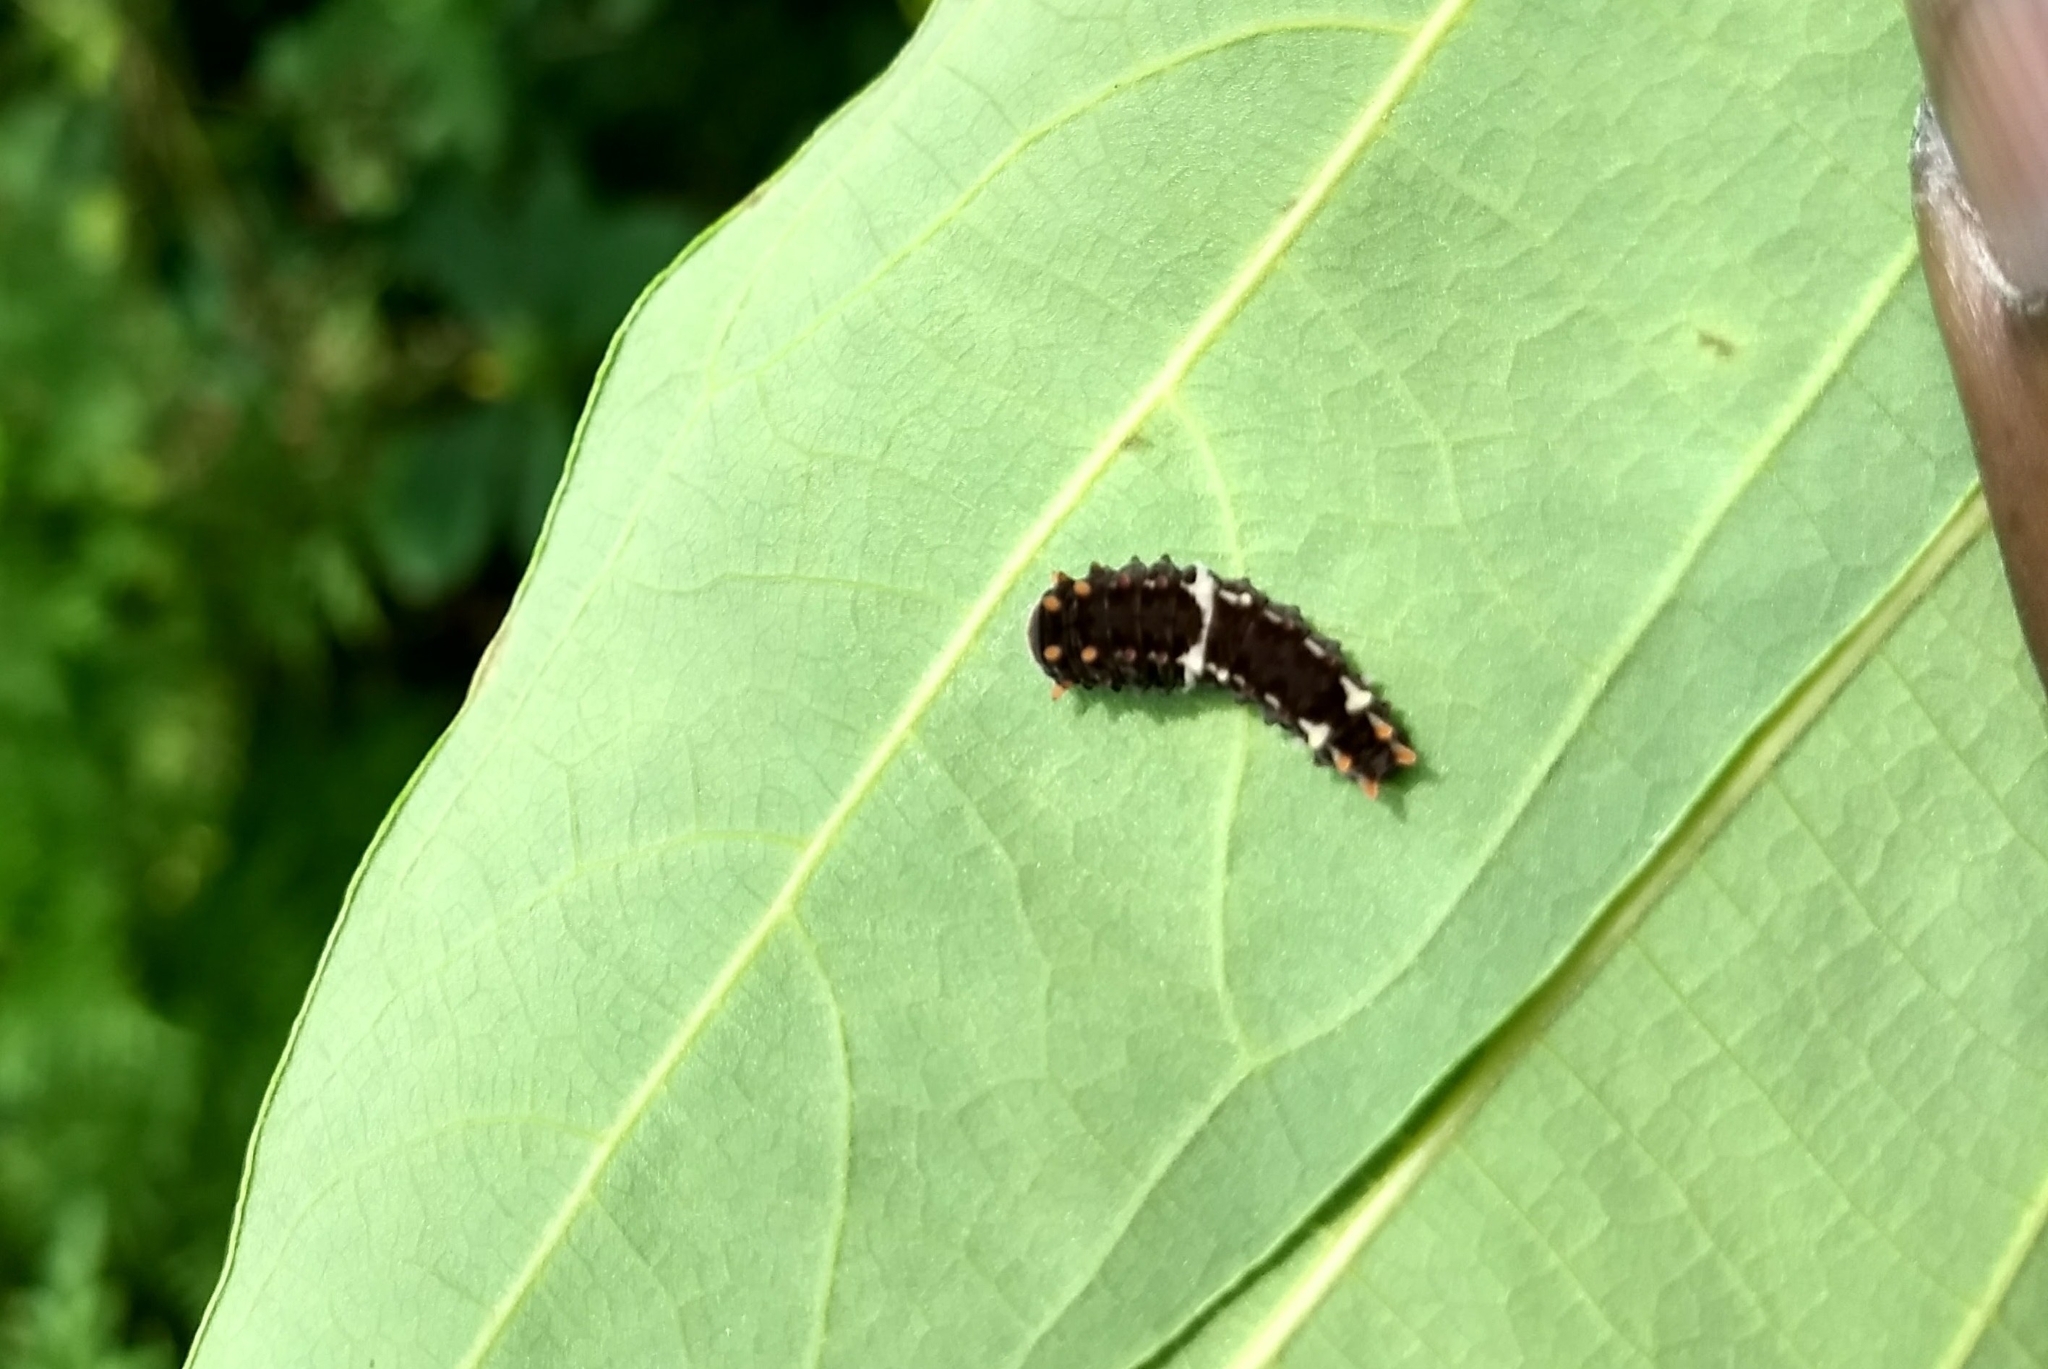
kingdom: Animalia
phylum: Arthropoda
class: Insecta
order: Lepidoptera
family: Papilionidae
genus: Pachliopta
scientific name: Pachliopta pandiyana
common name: Malabar rose
